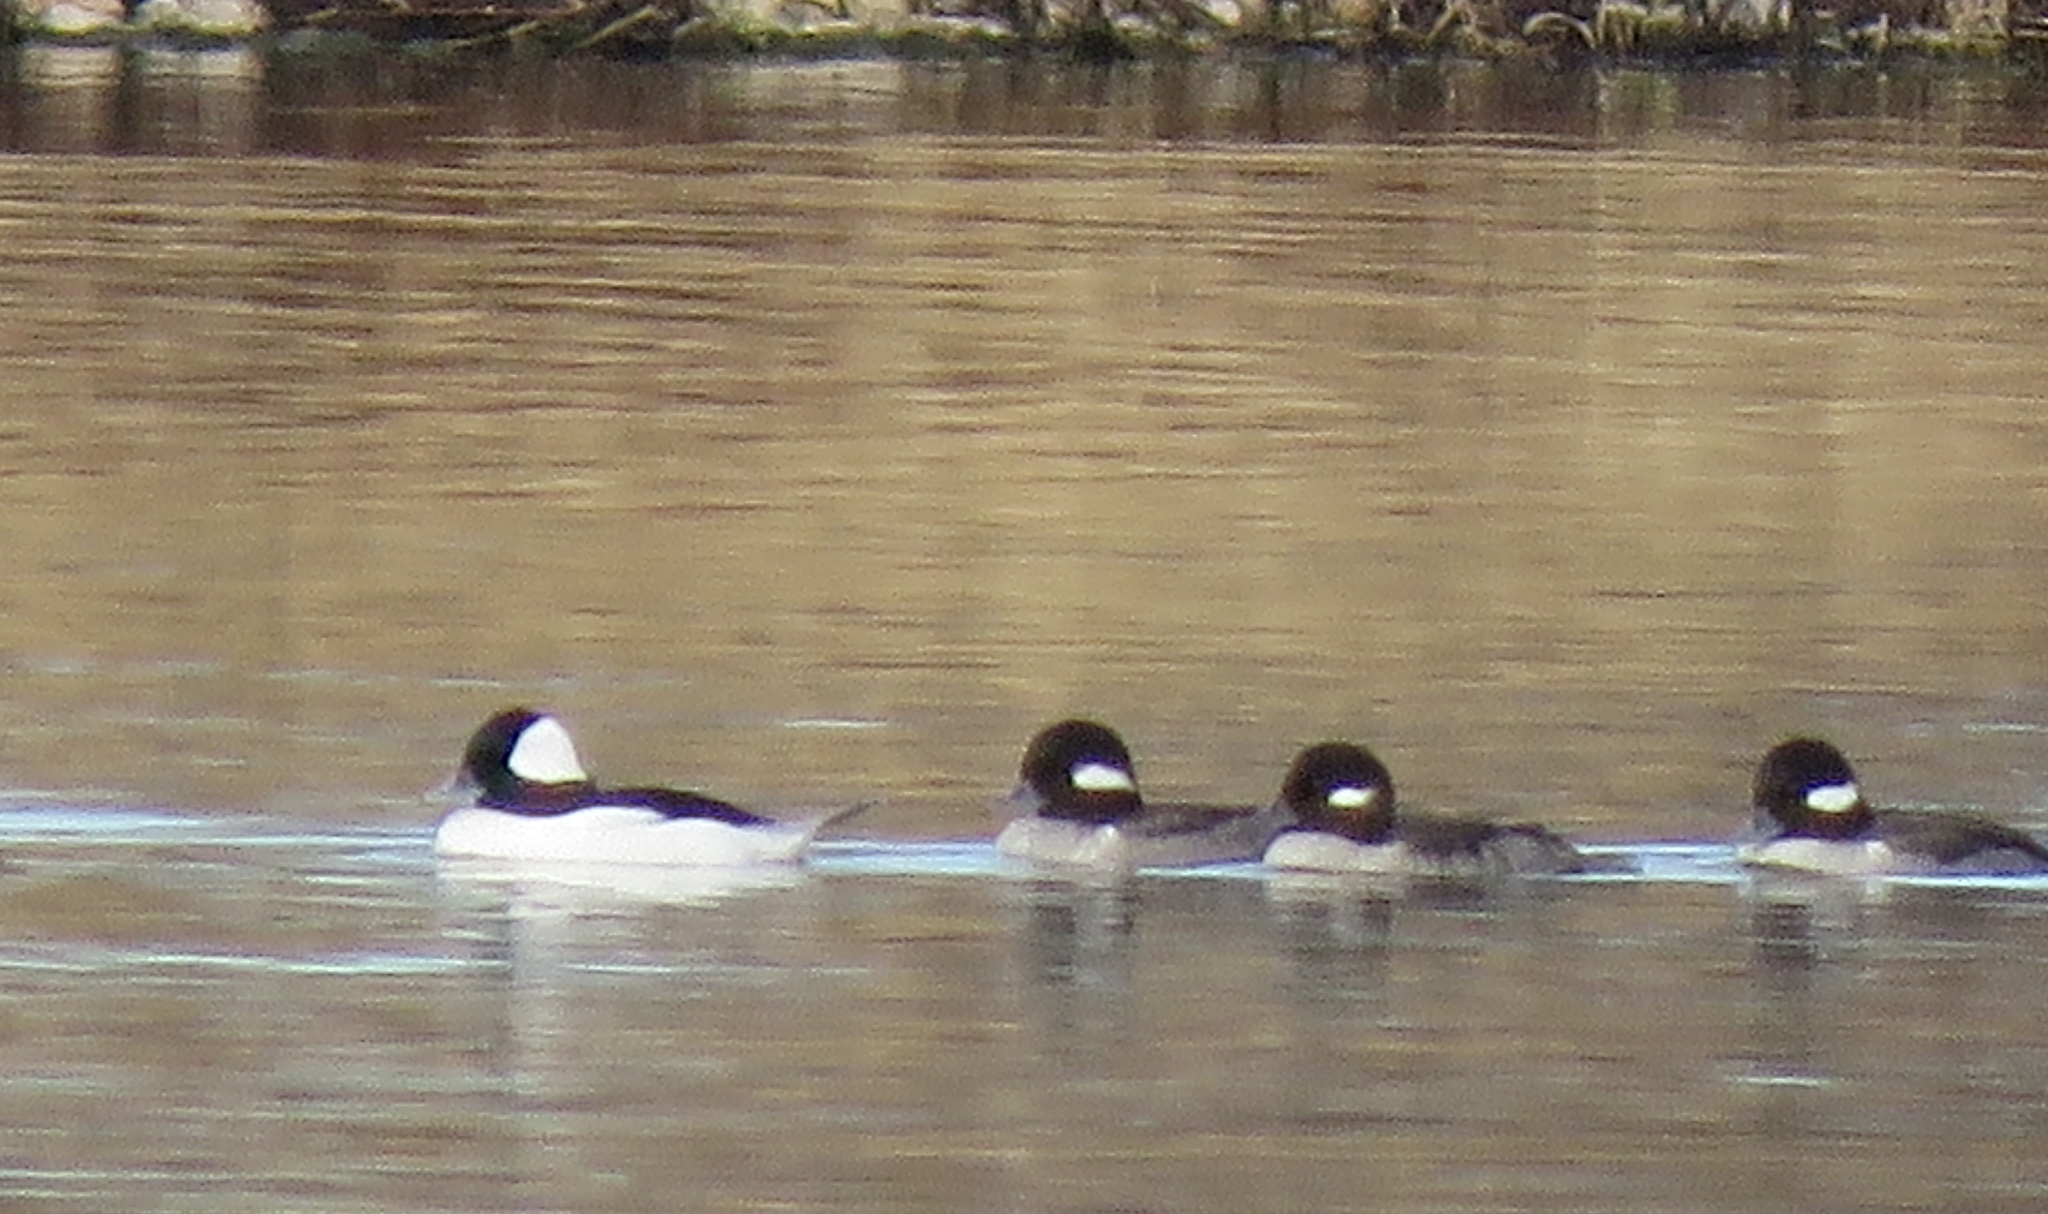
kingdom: Animalia
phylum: Chordata
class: Aves
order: Anseriformes
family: Anatidae
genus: Bucephala
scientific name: Bucephala albeola
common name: Bufflehead
